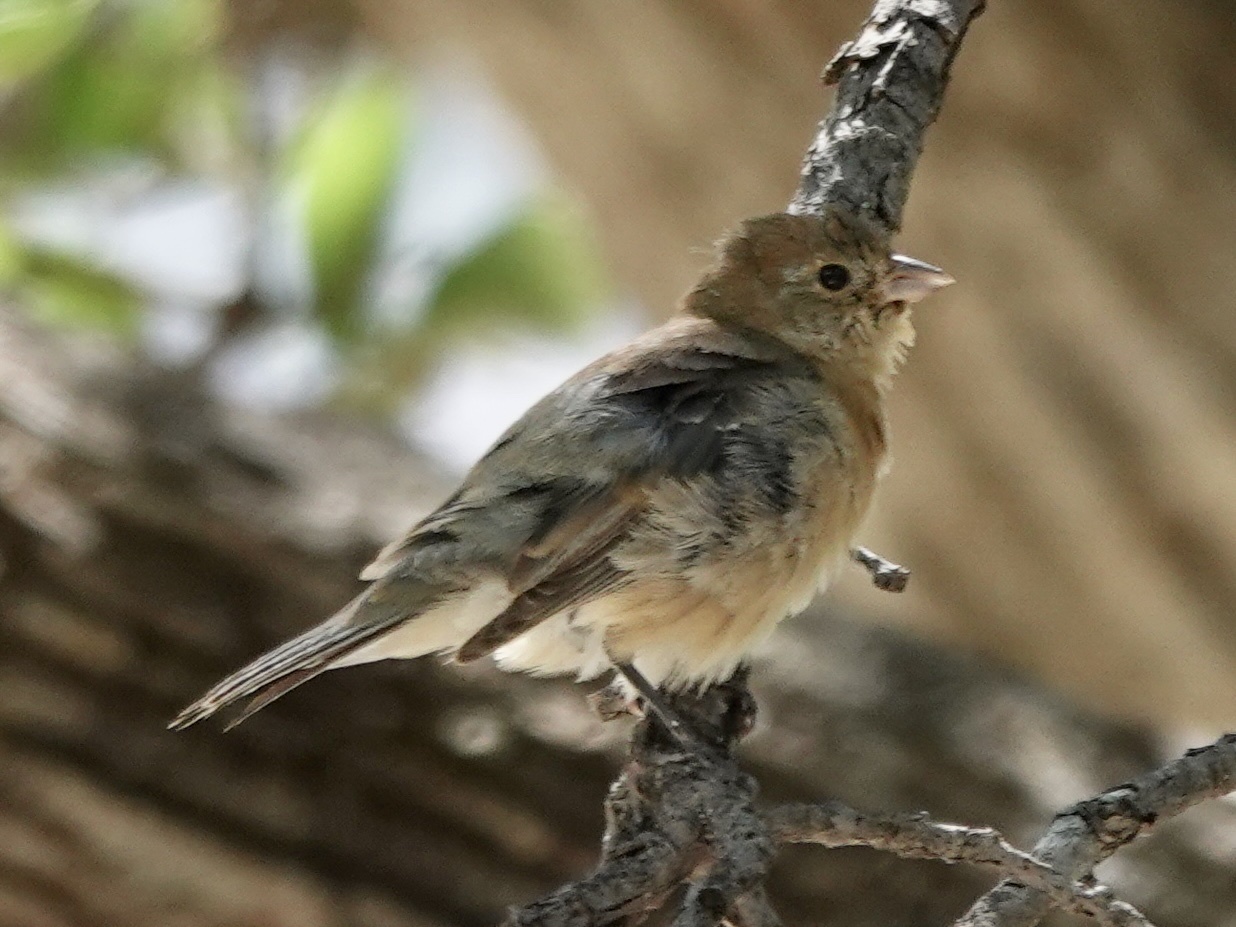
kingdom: Animalia
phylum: Chordata
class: Aves
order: Passeriformes
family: Cardinalidae
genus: Passerina
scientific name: Passerina versicolor
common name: Varied bunting
